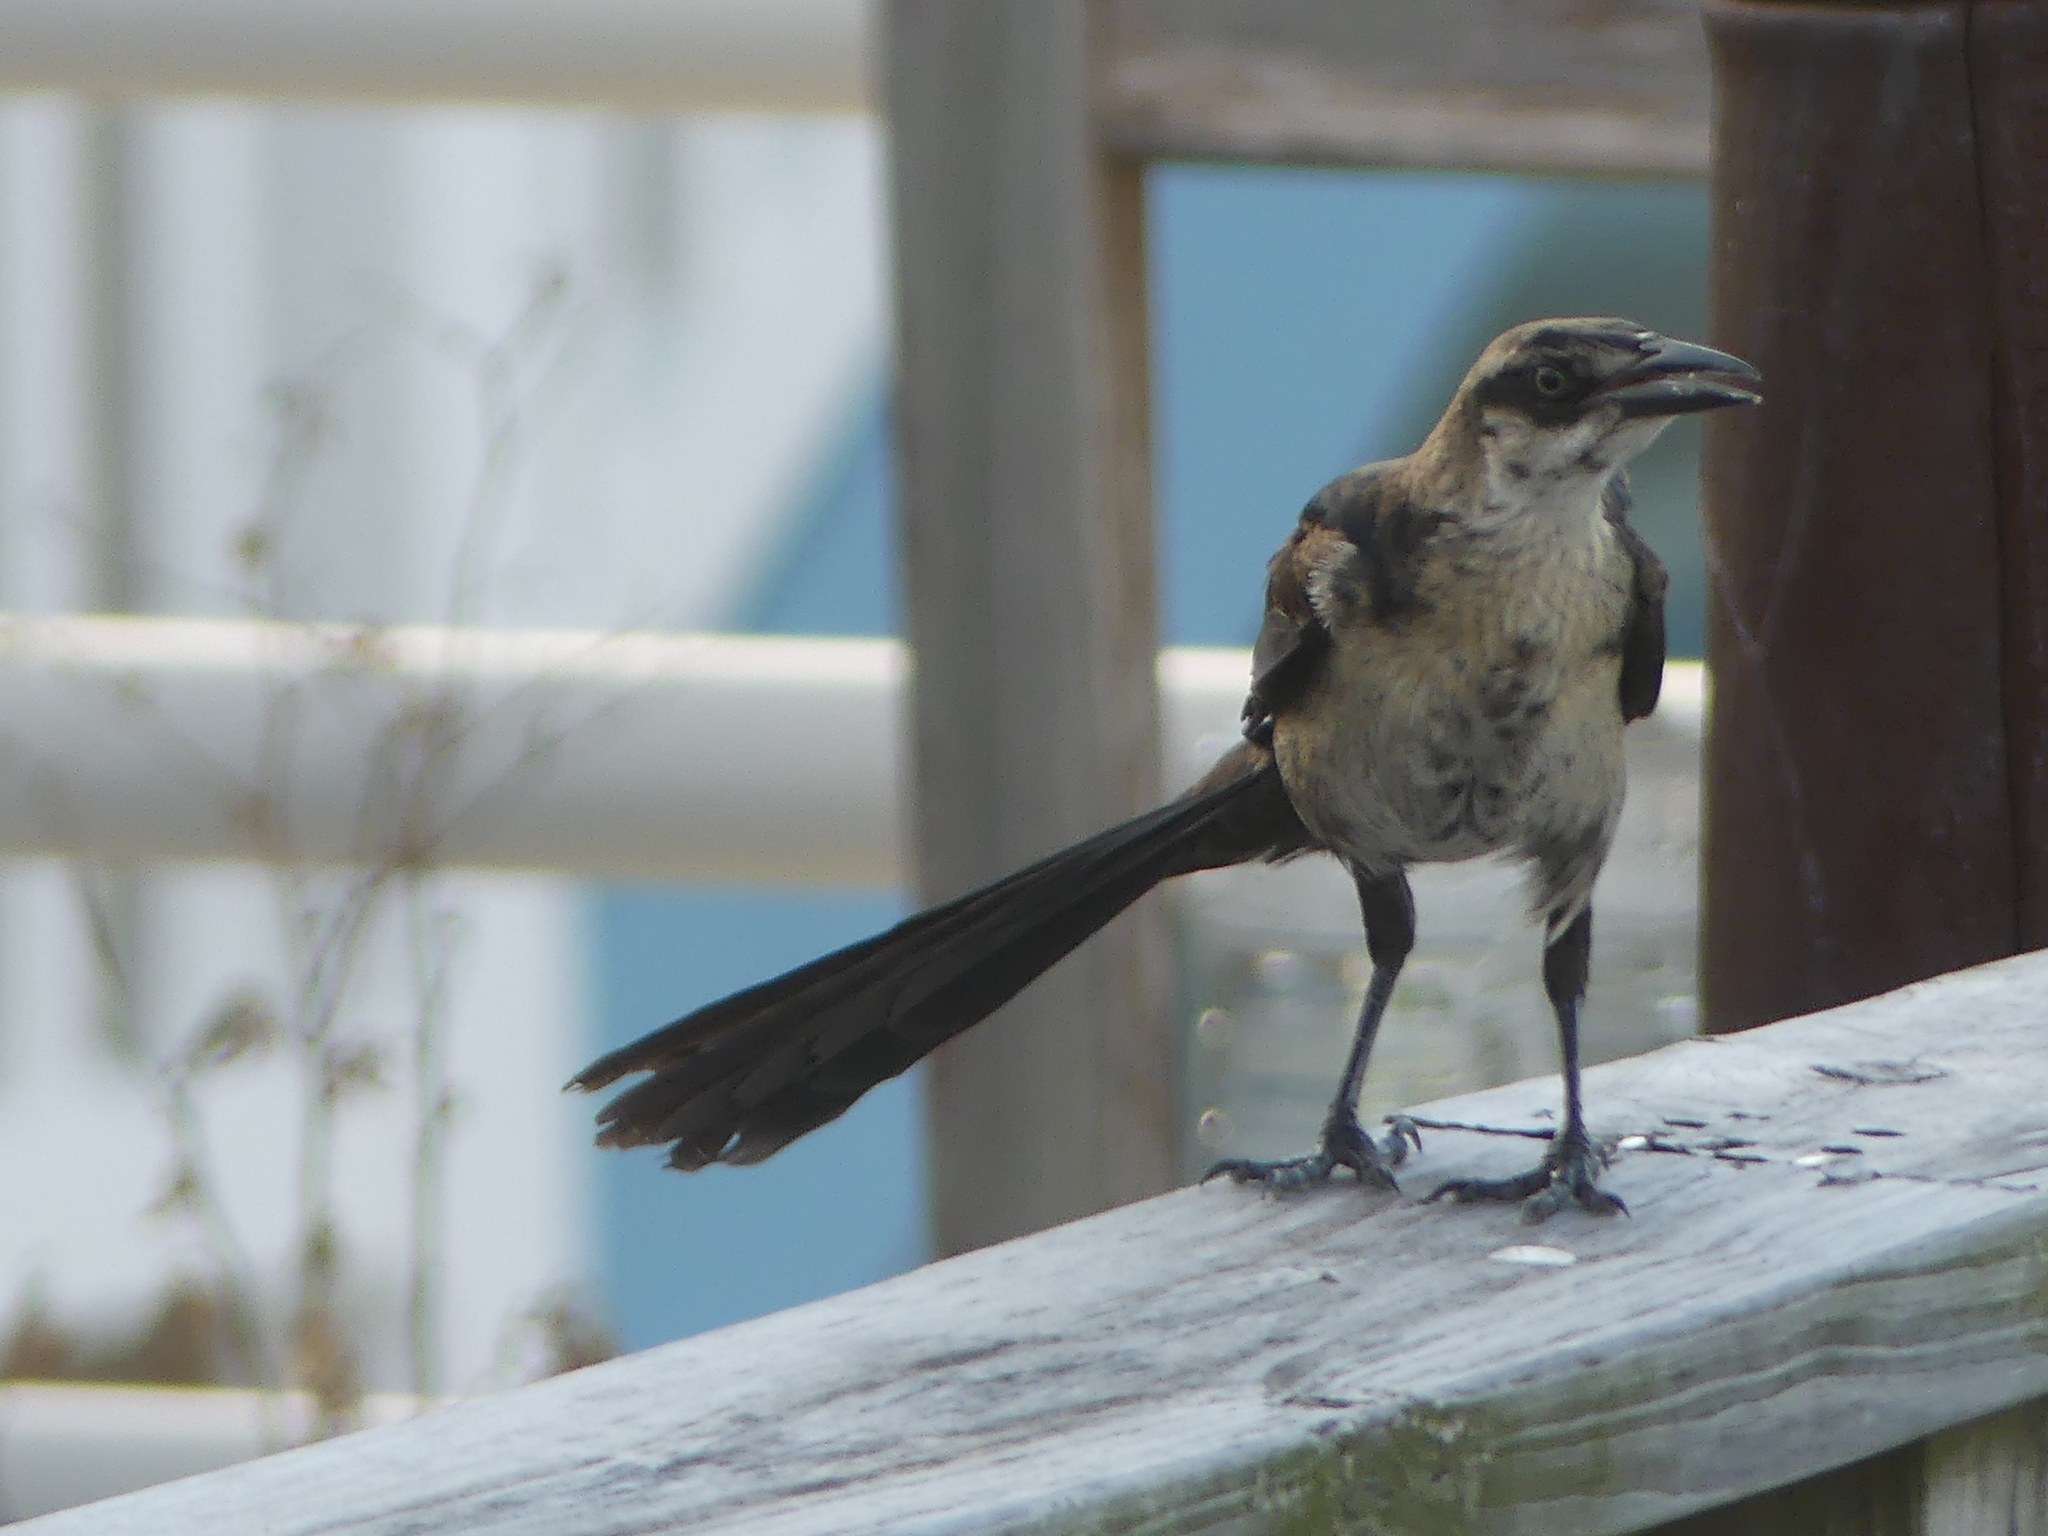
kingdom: Animalia
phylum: Chordata
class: Aves
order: Passeriformes
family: Icteridae
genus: Quiscalus
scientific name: Quiscalus mexicanus
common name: Great-tailed grackle
